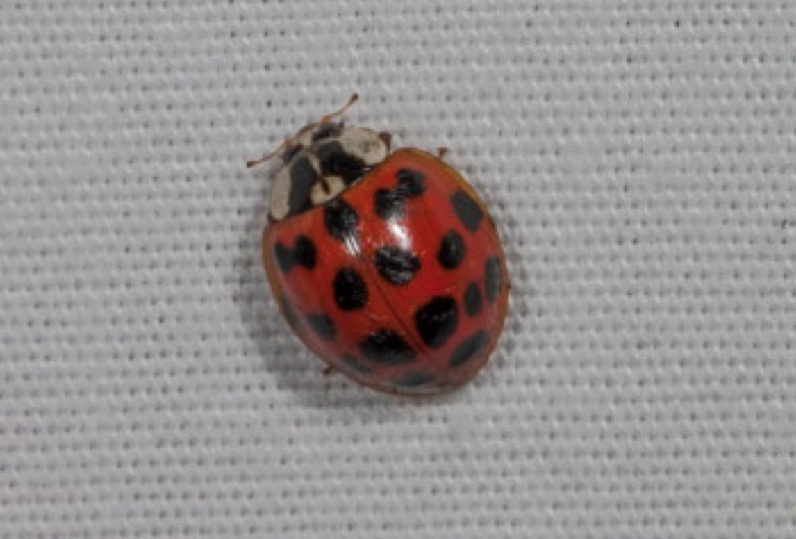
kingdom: Animalia
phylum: Arthropoda
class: Insecta
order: Coleoptera
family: Coccinellidae
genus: Harmonia
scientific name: Harmonia axyridis
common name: Harlequin ladybird
